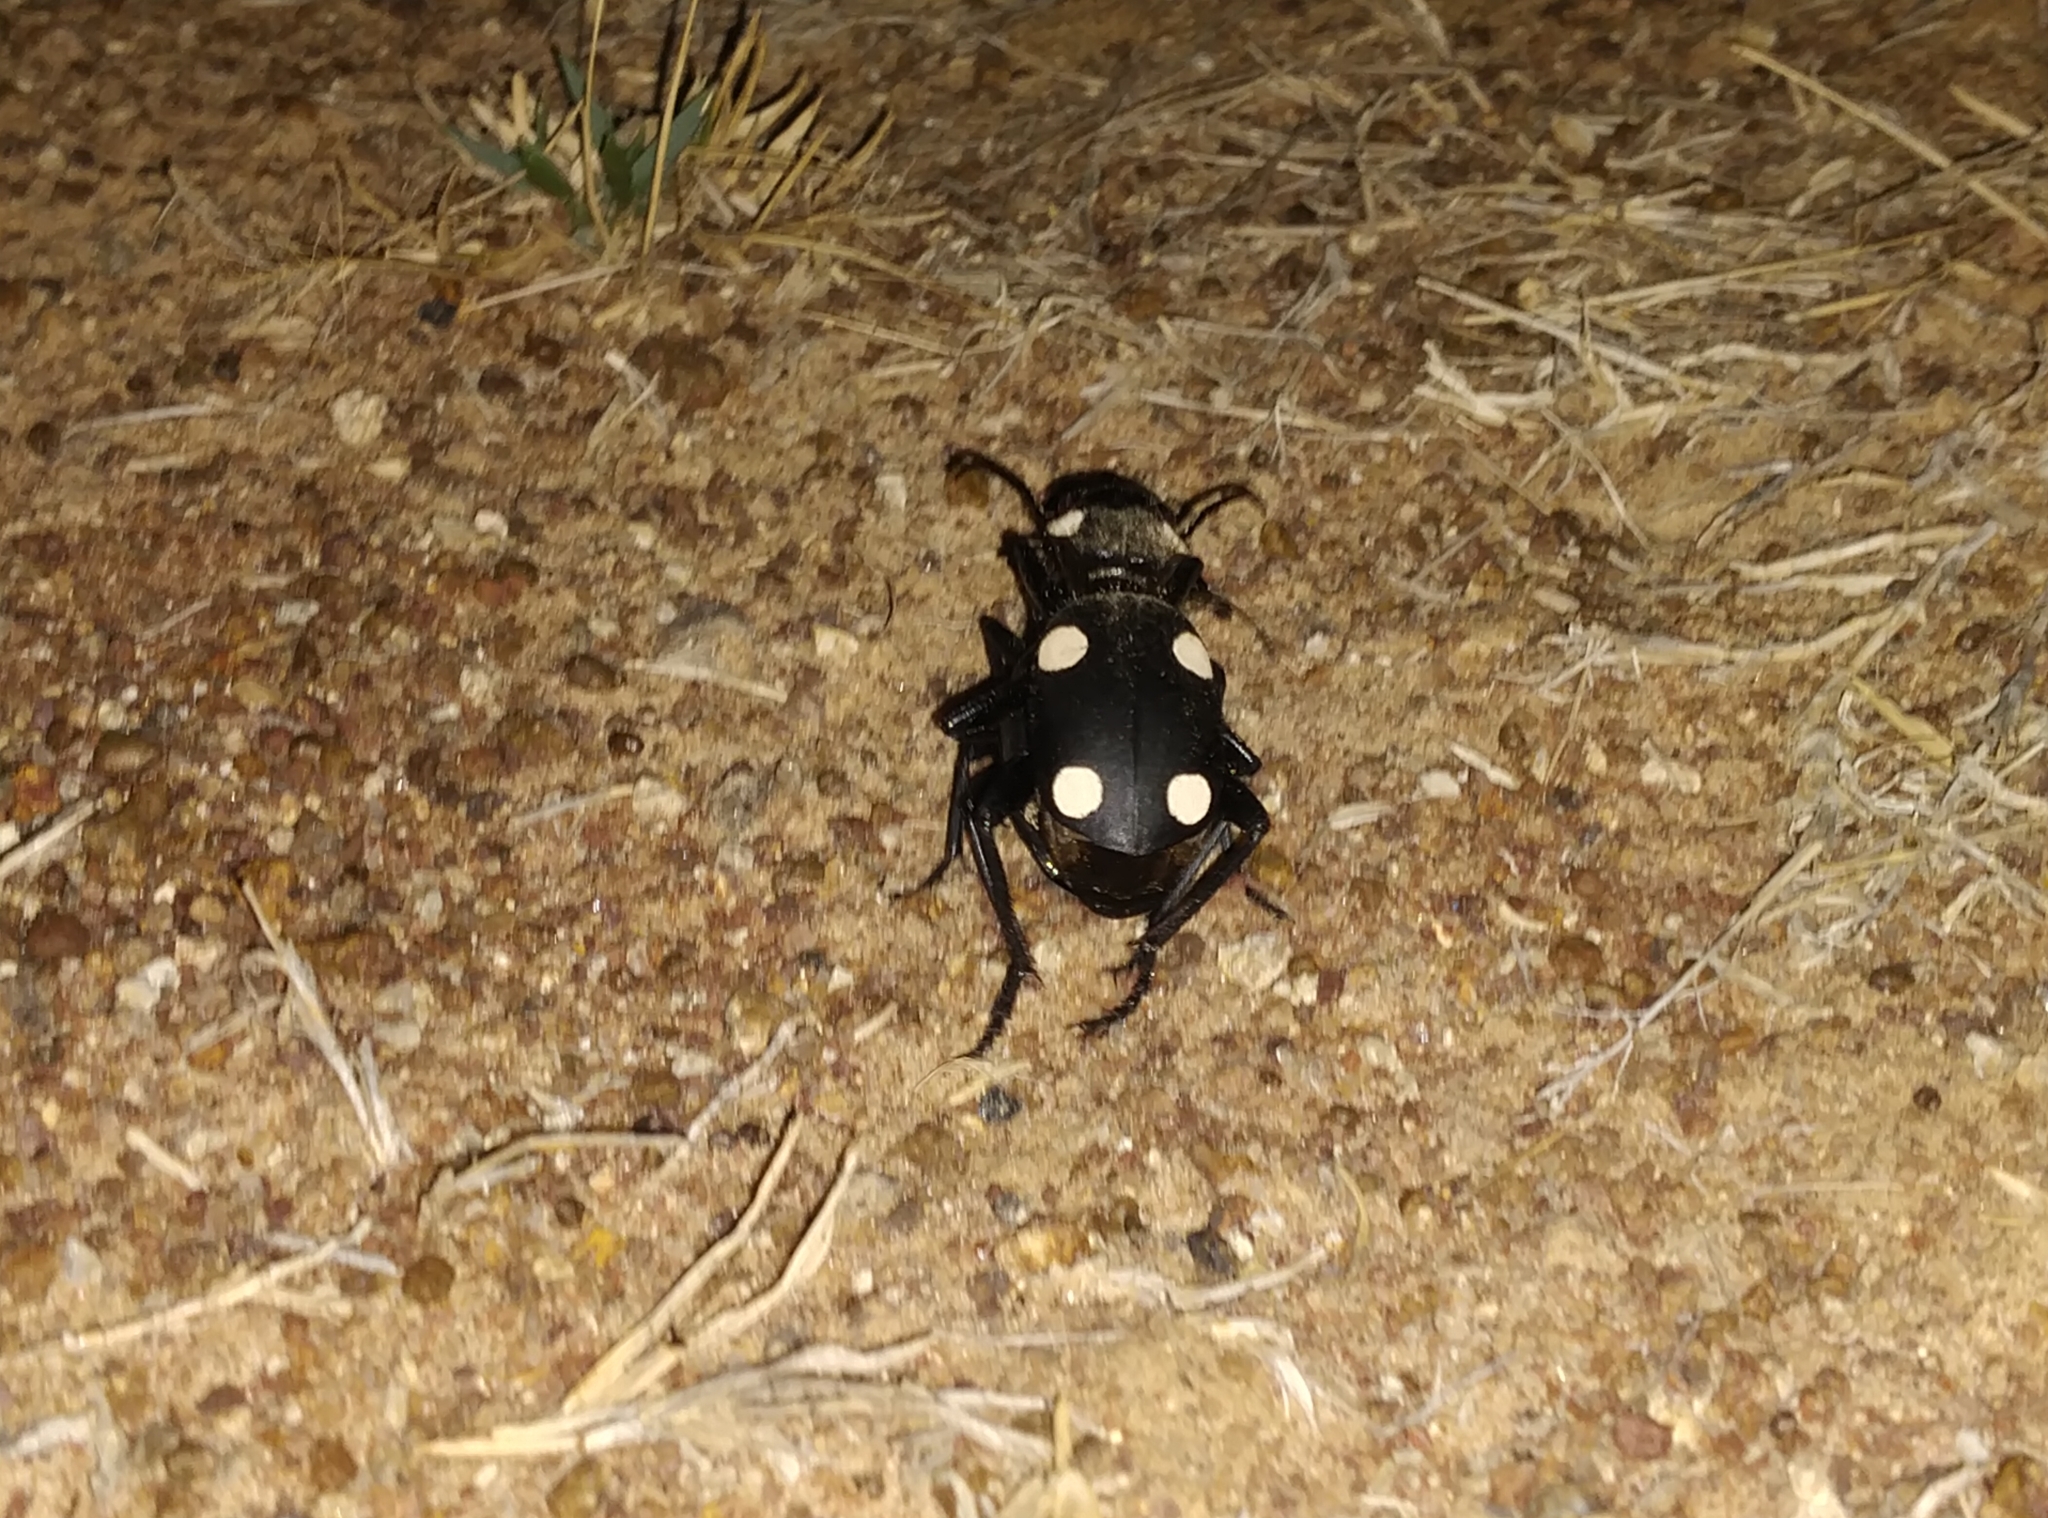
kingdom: Animalia
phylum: Arthropoda
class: Insecta
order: Coleoptera
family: Carabidae
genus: Anthia
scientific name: Anthia sexguttata
